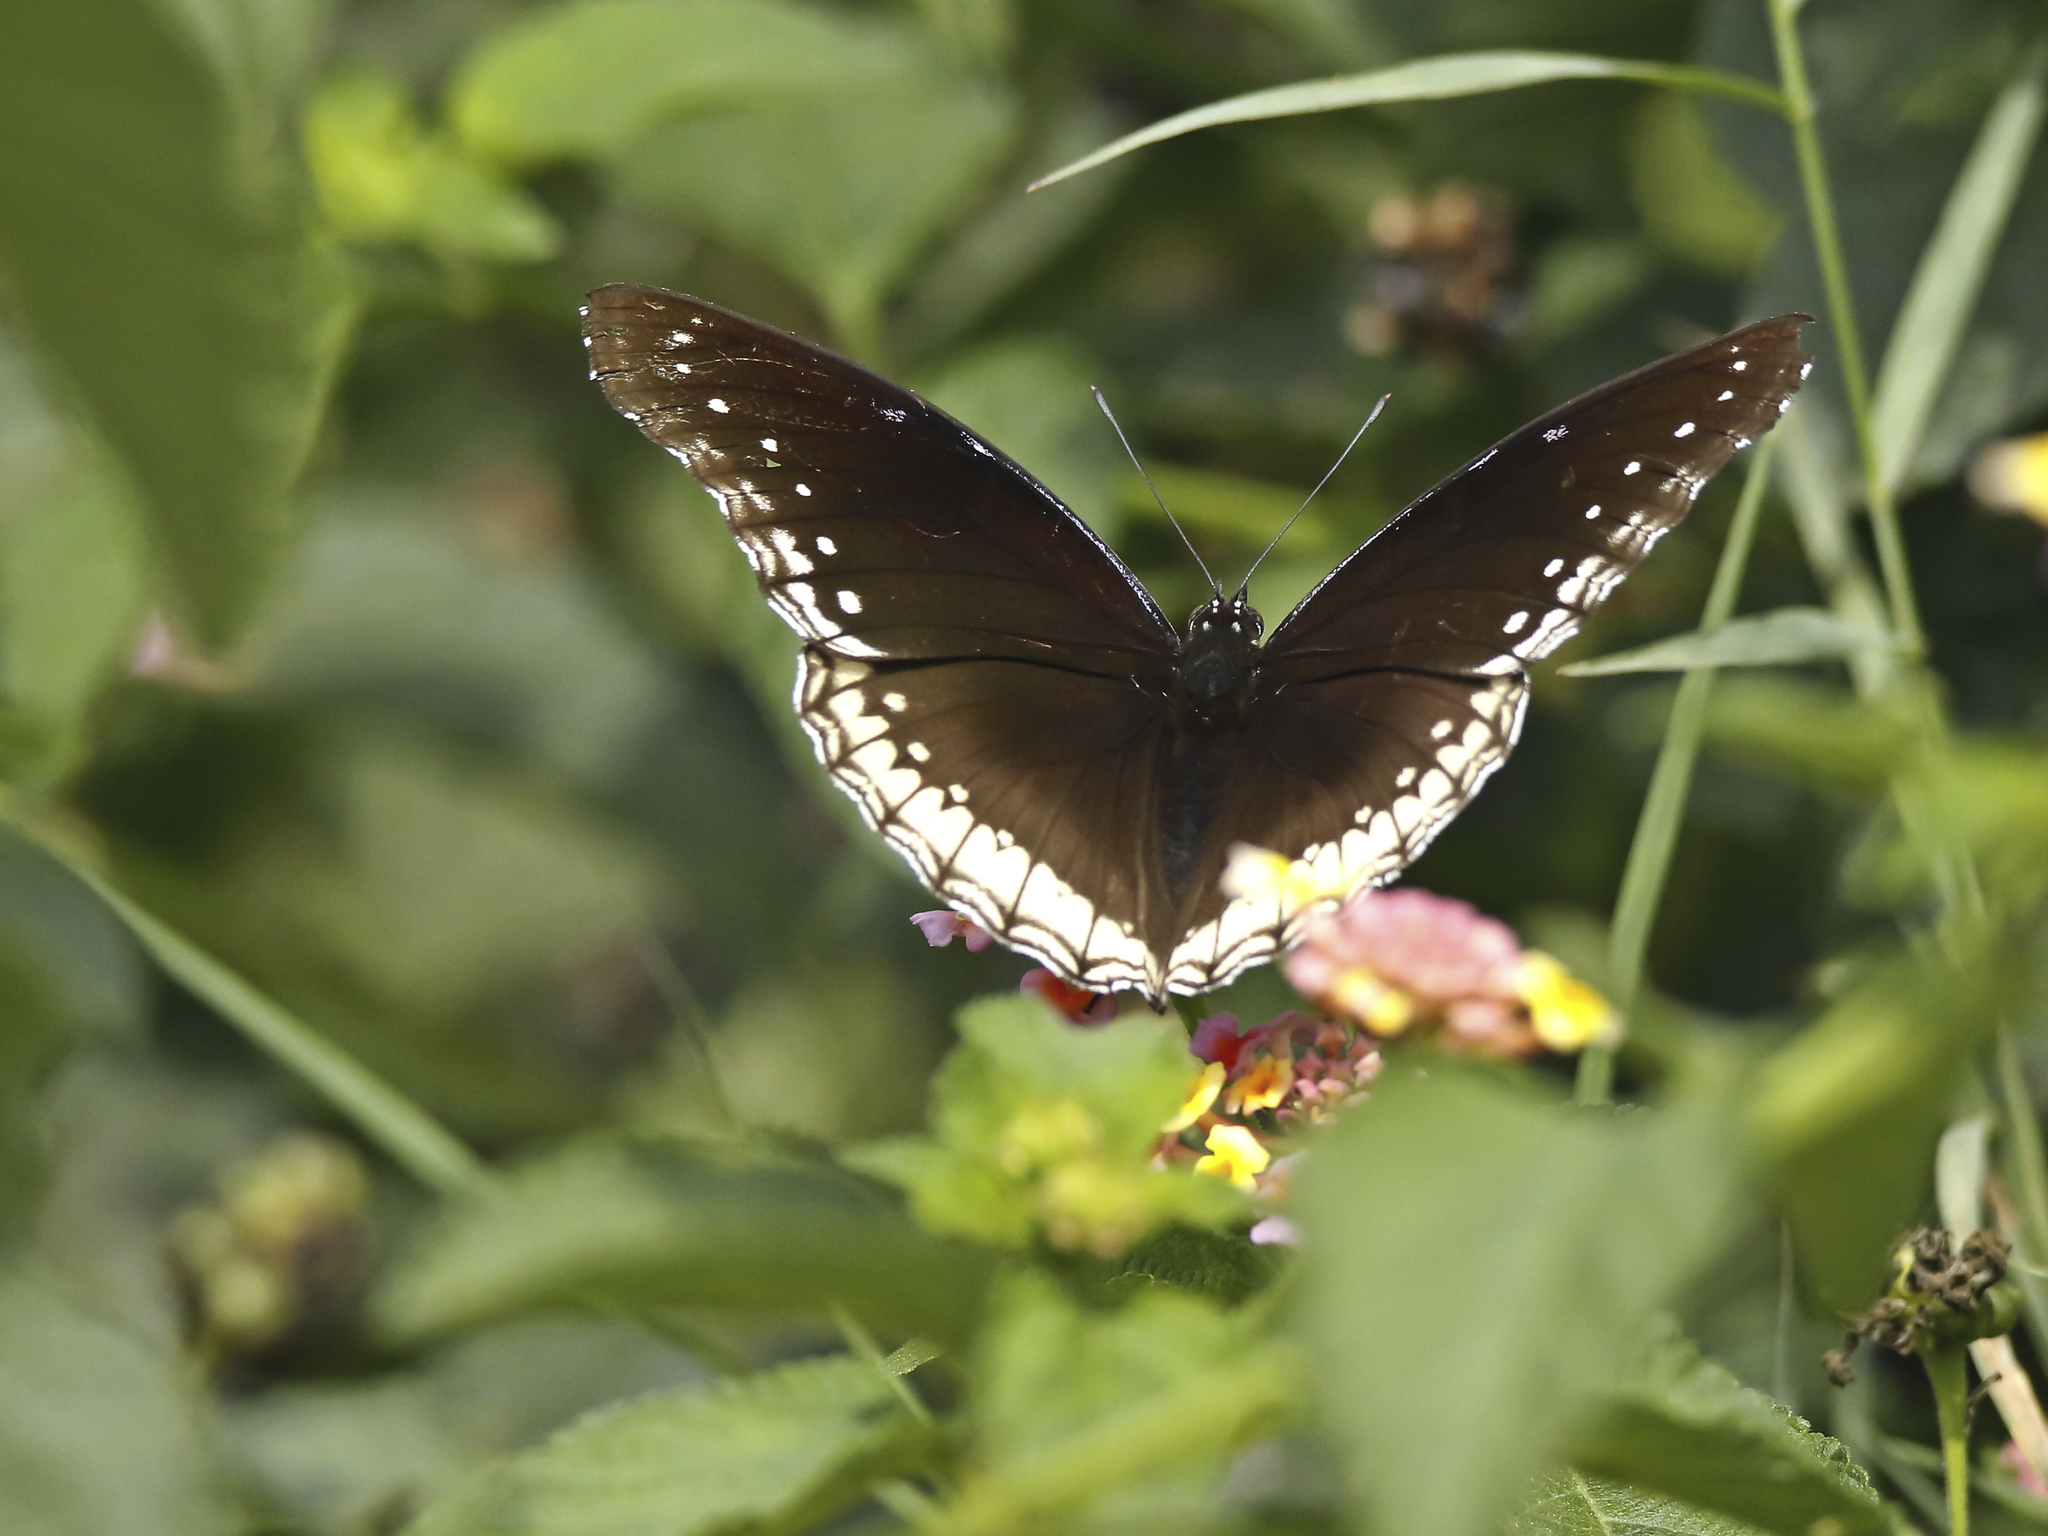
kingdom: Animalia
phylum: Arthropoda
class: Insecta
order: Lepidoptera
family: Nymphalidae
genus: Hypolimnas
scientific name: Hypolimnas bolina
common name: Great eggfly
